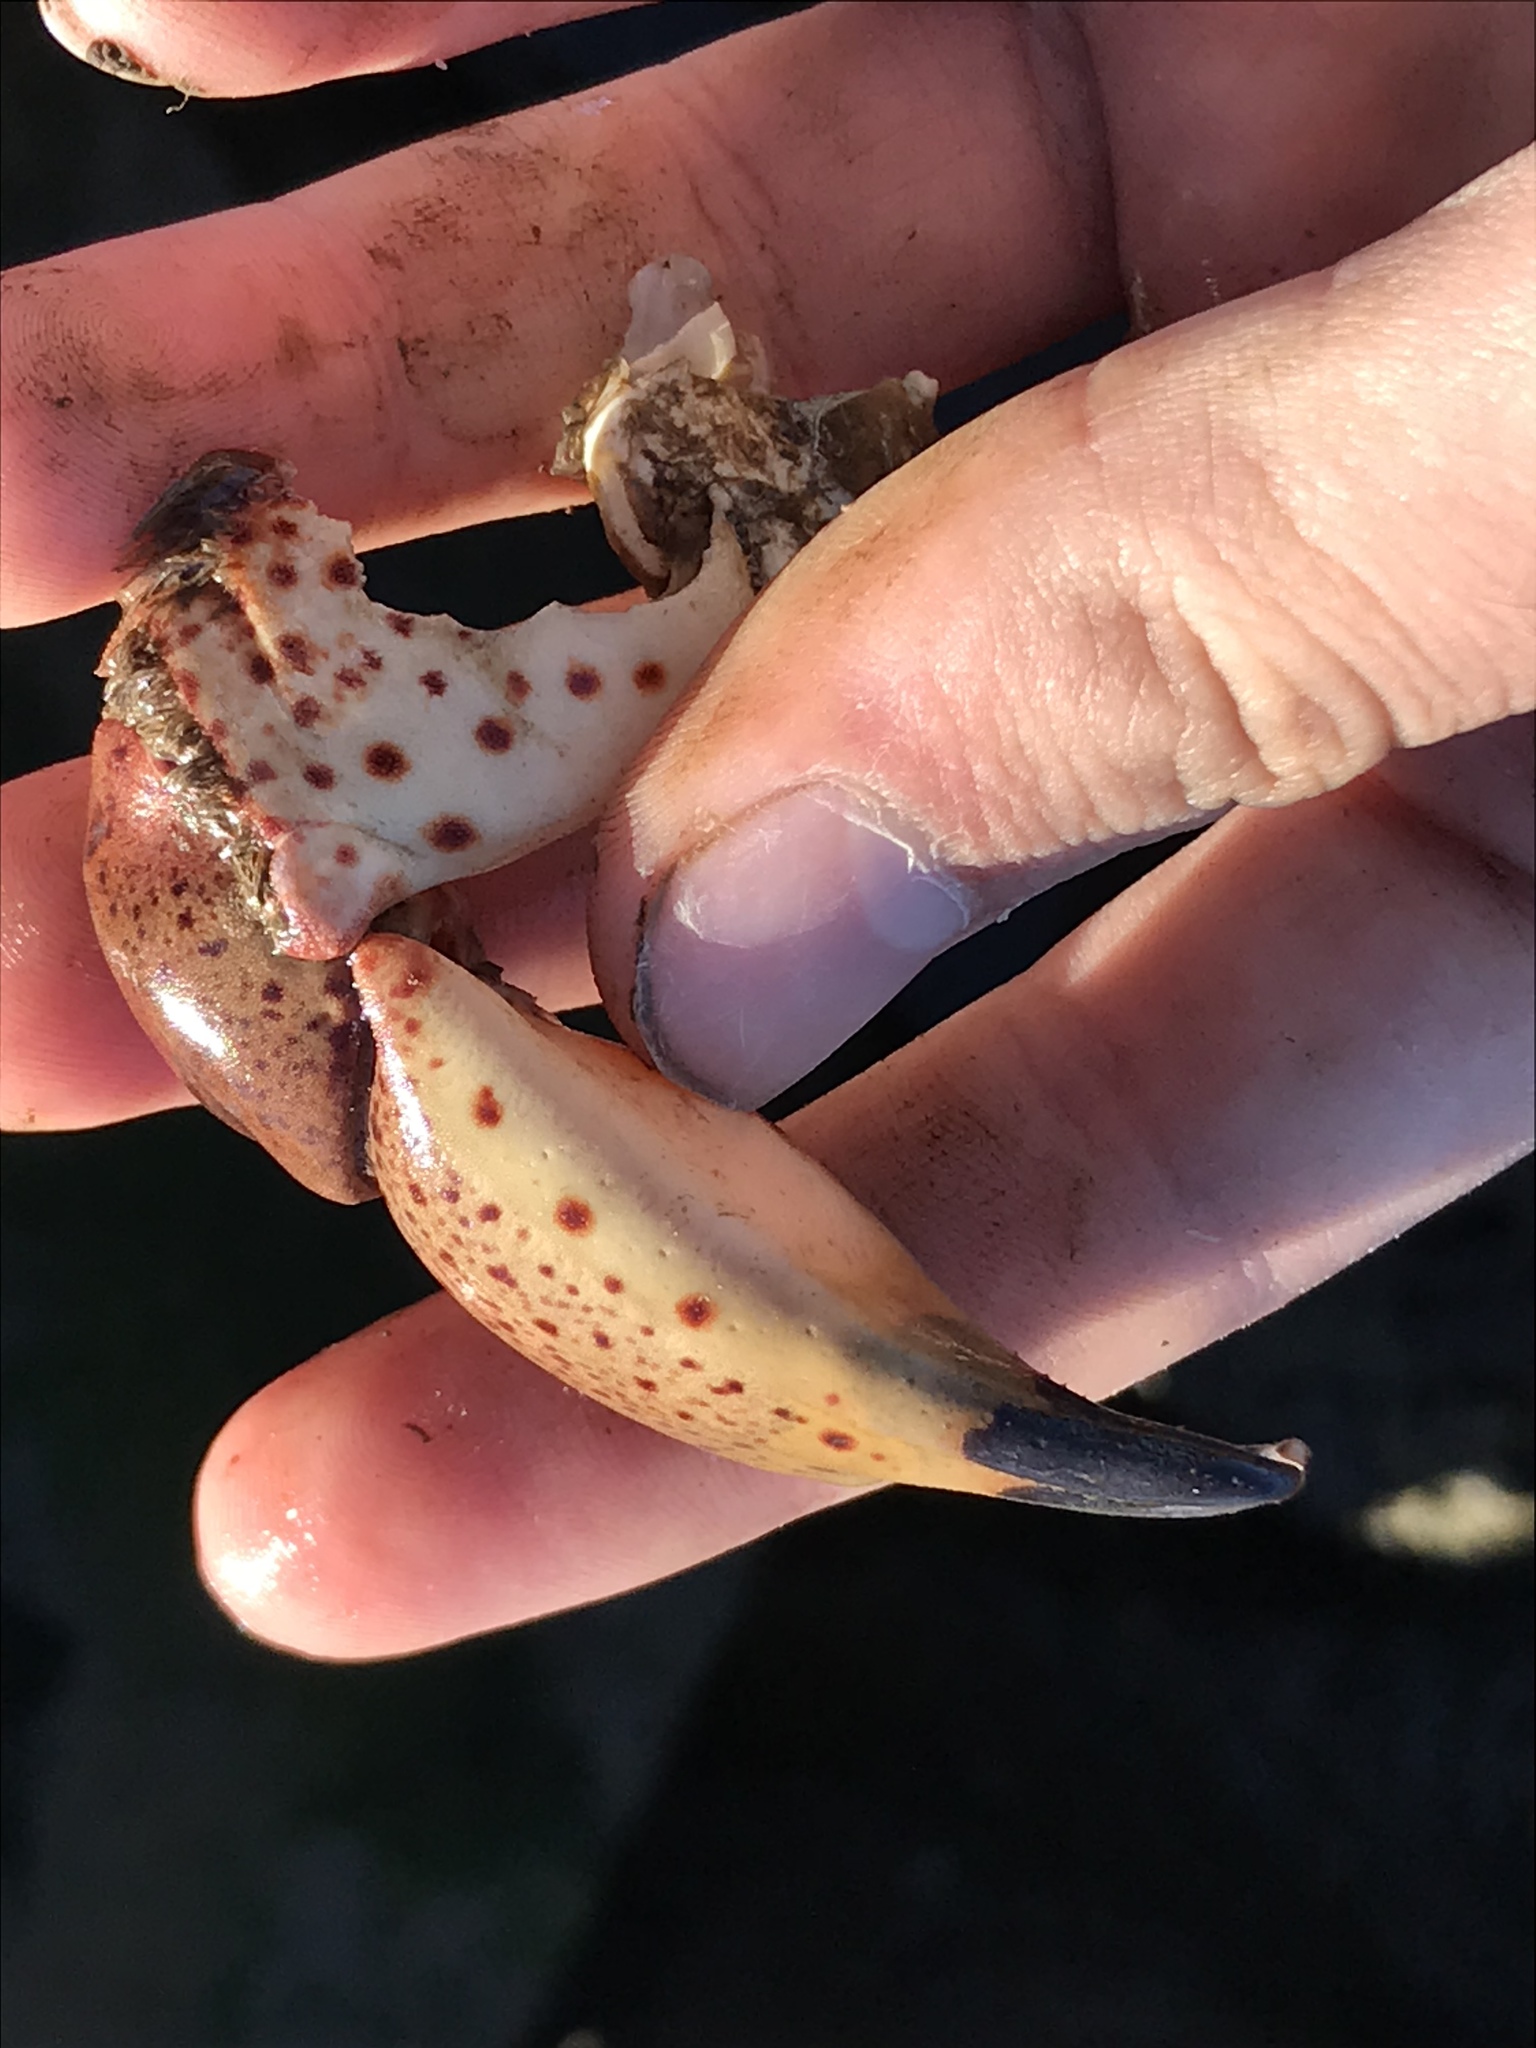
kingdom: Animalia
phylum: Arthropoda
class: Malacostraca
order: Decapoda
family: Cancridae
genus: Romaleon
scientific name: Romaleon antennarium
